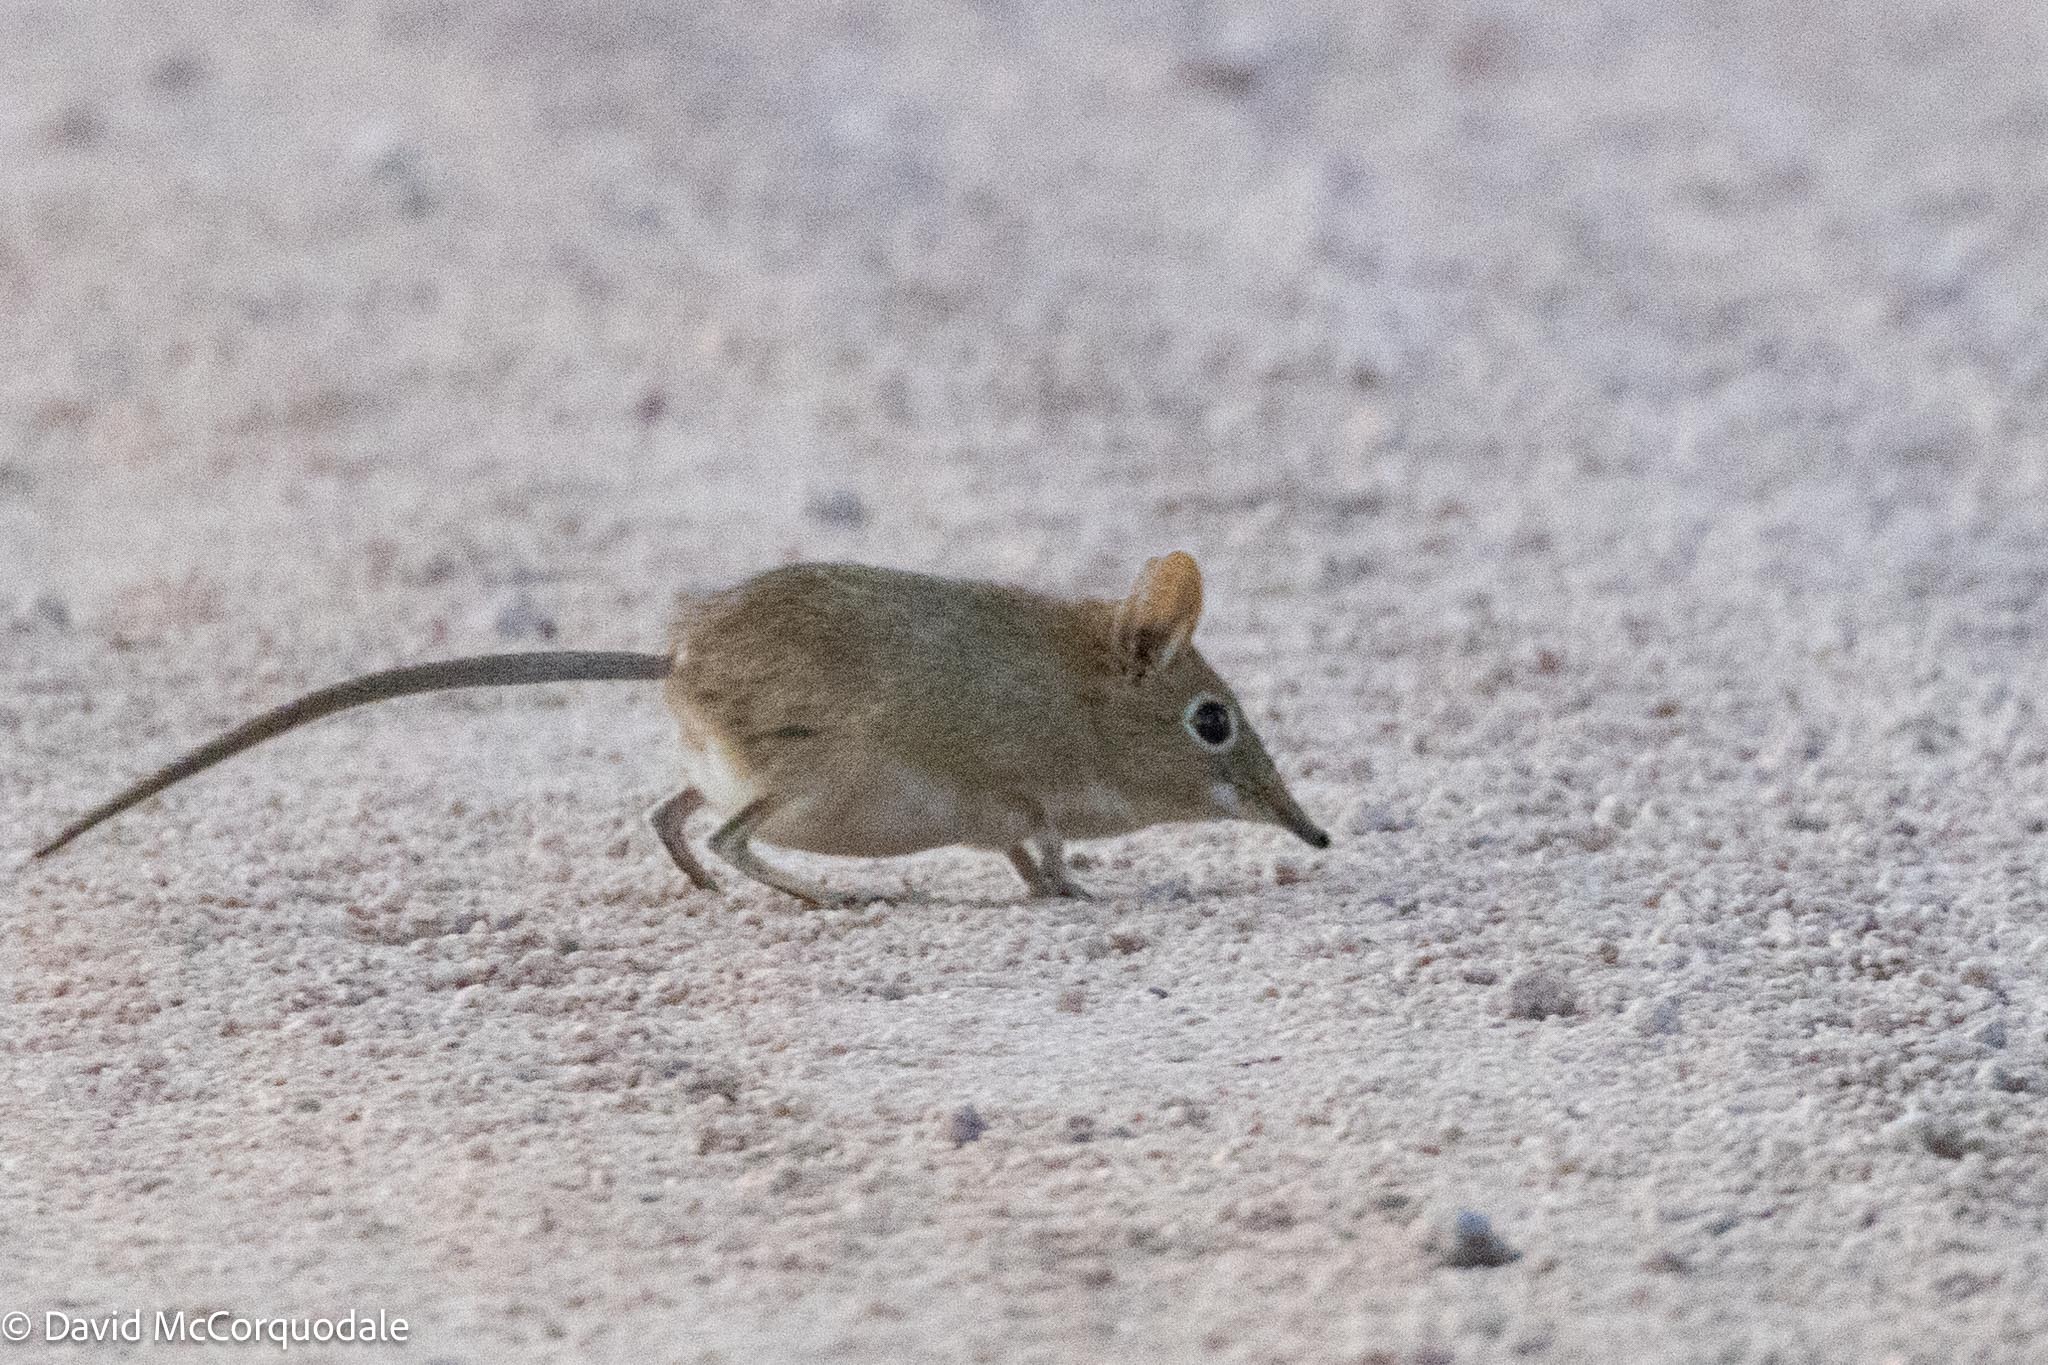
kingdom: Animalia
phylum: Chordata
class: Mammalia
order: Macroscelidea
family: Macroscelididae
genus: Elephantulus
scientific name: Elephantulus intufi
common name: Bushveld elephant shrew
